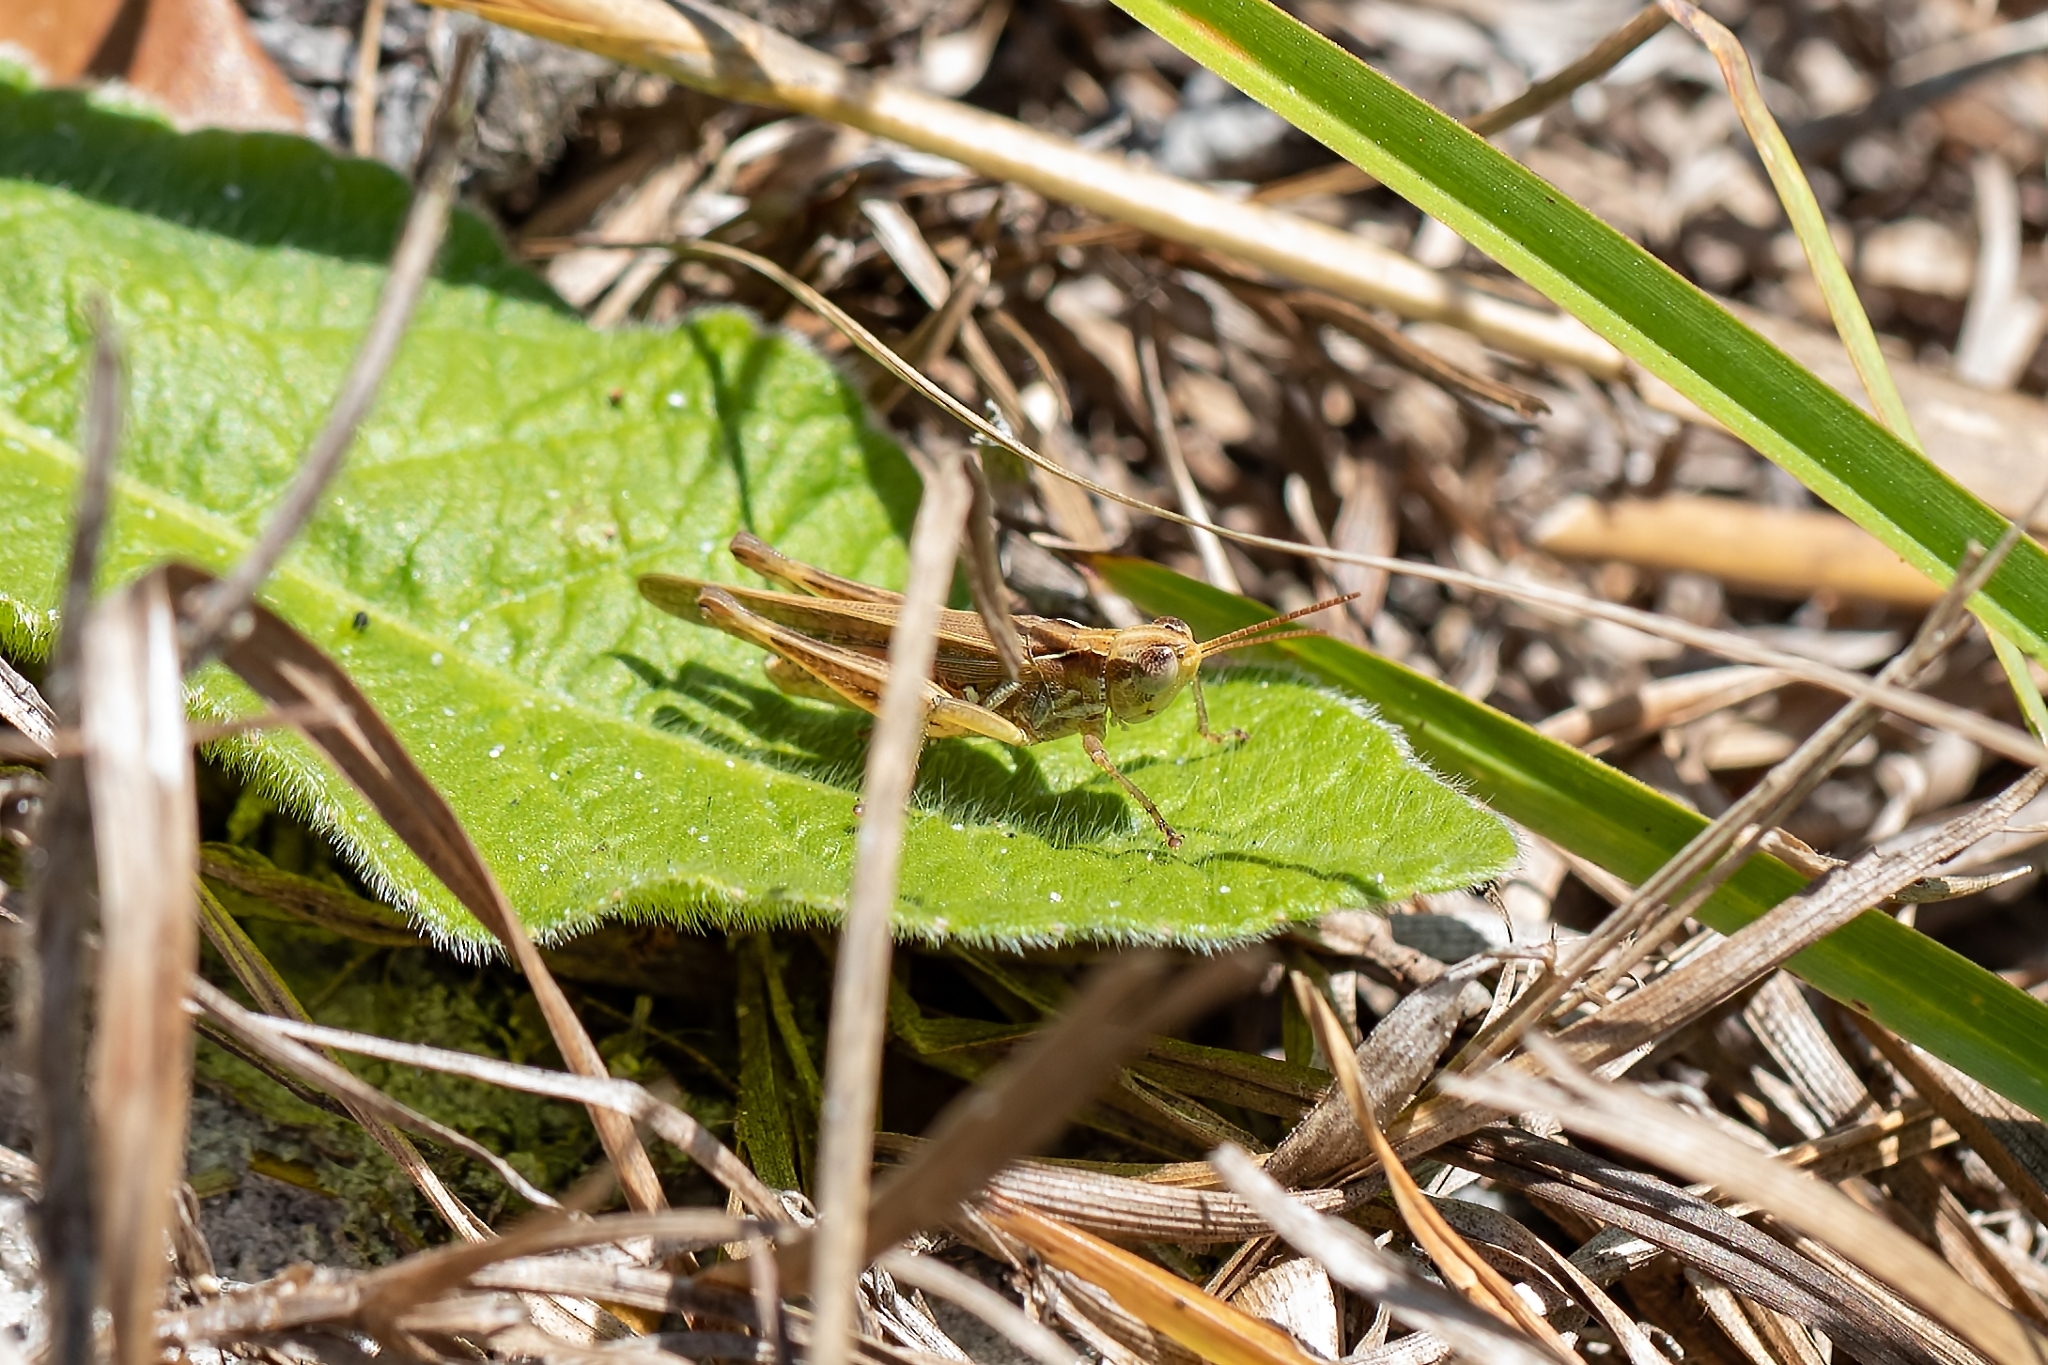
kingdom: Animalia
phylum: Arthropoda
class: Insecta
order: Orthoptera
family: Acrididae
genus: Orphulella
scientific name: Orphulella pelidna
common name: Spotted-wing grasshopper
